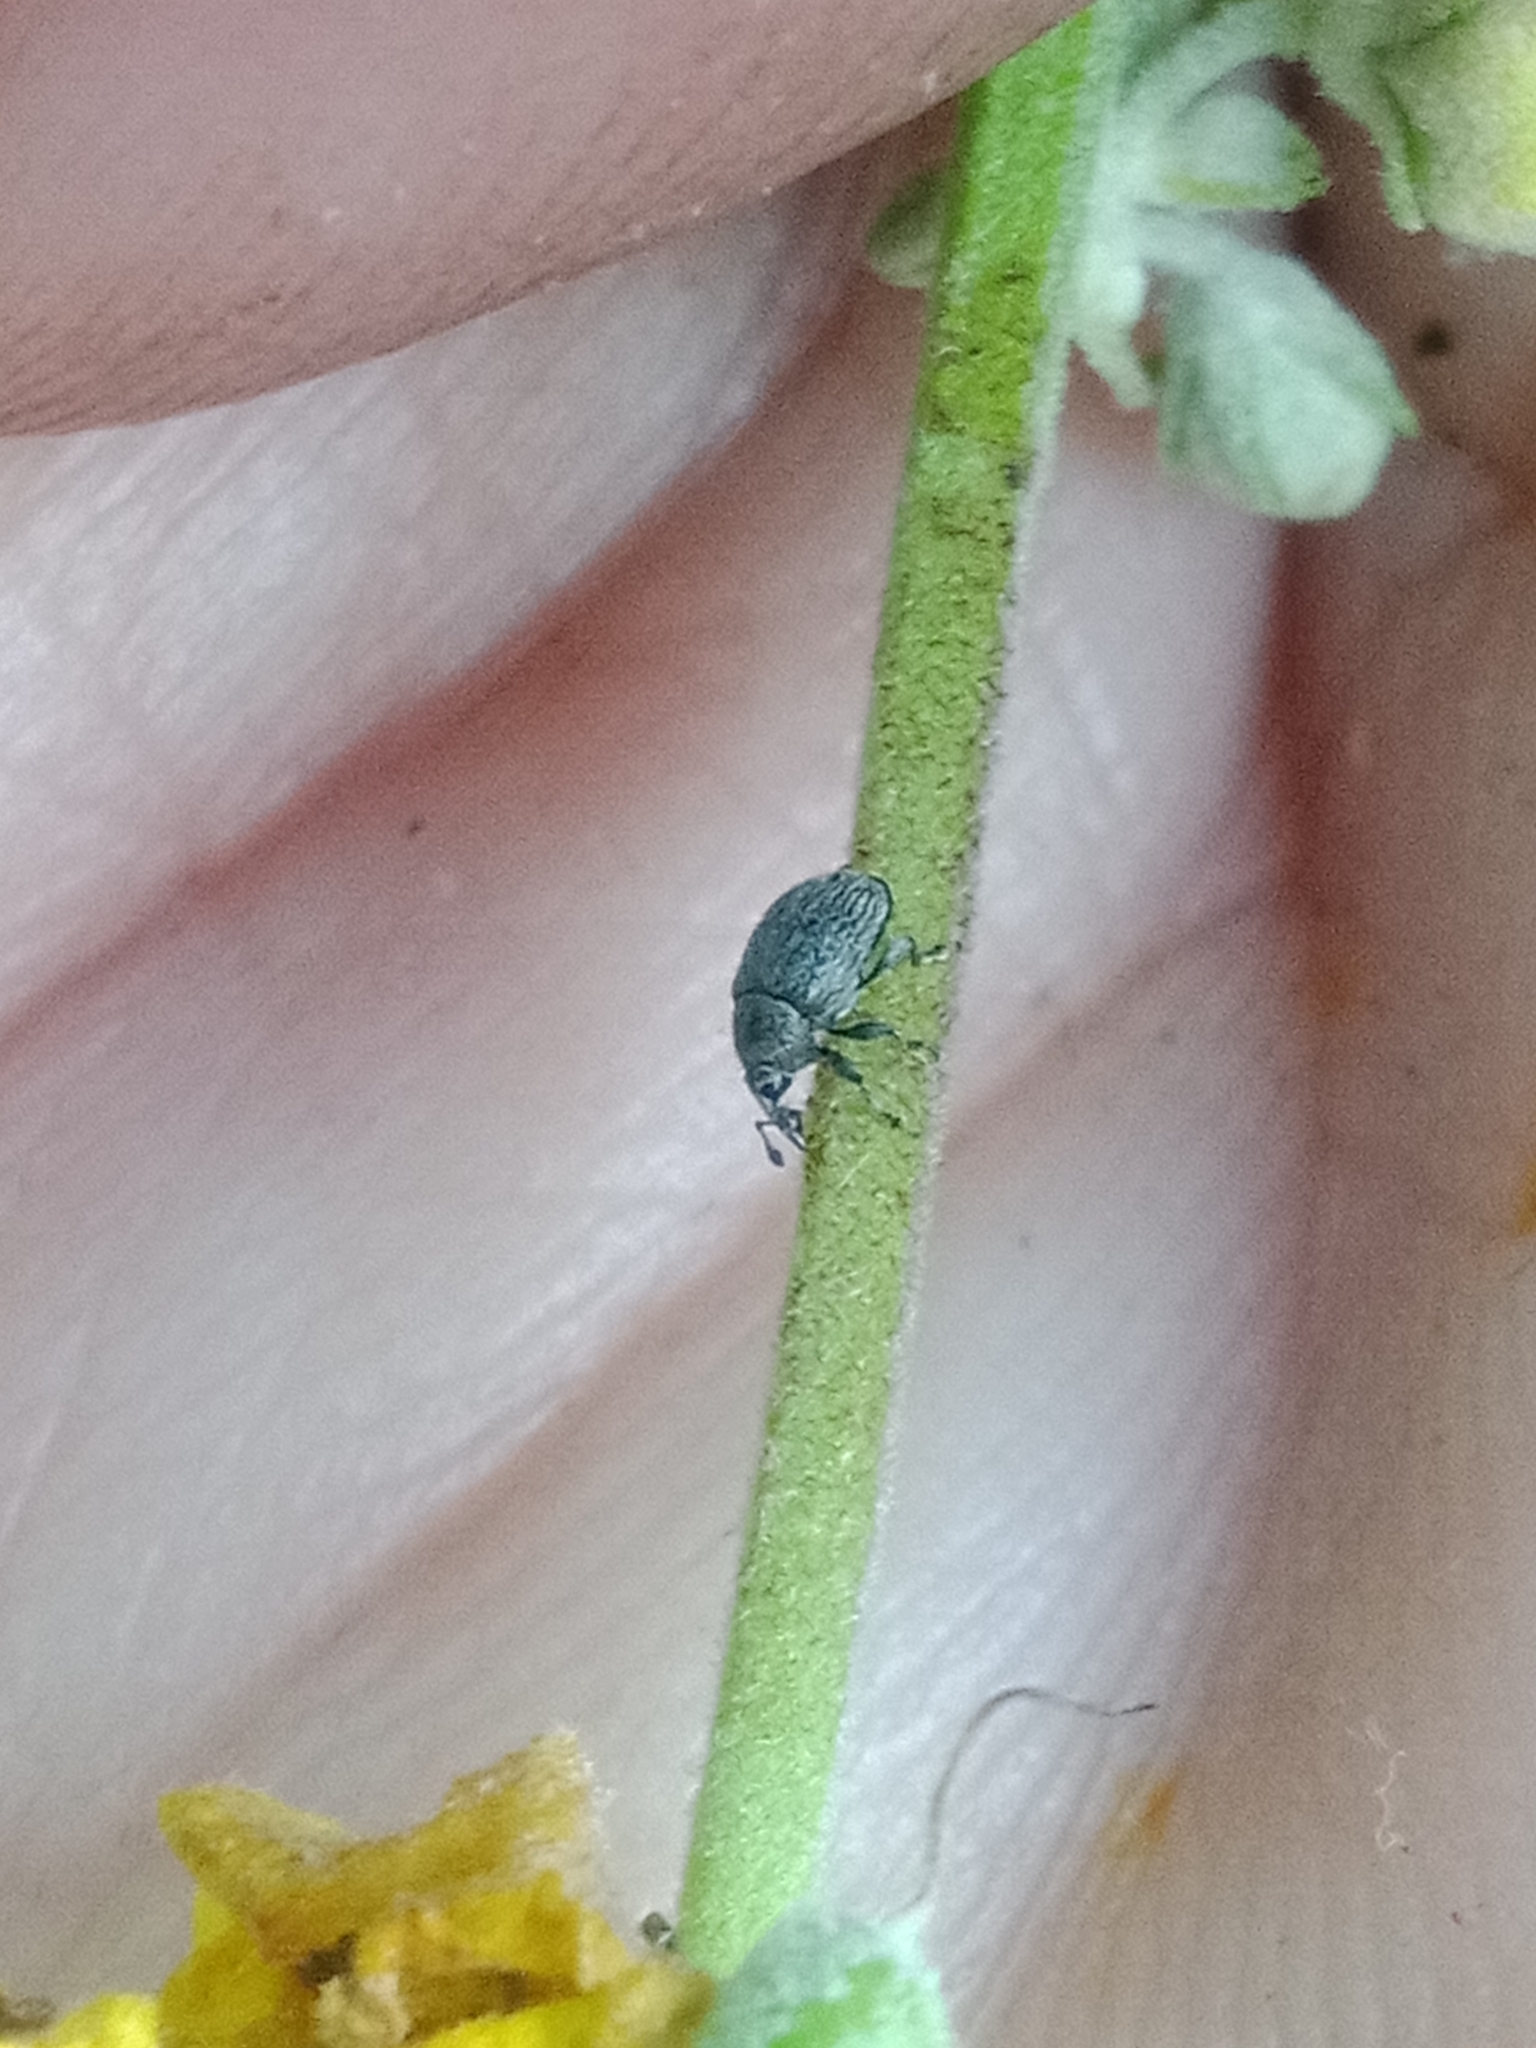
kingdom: Animalia
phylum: Arthropoda
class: Insecta
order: Coleoptera
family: Curculionidae
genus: Rhinusa
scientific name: Rhinusa tetra
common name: Weevil
